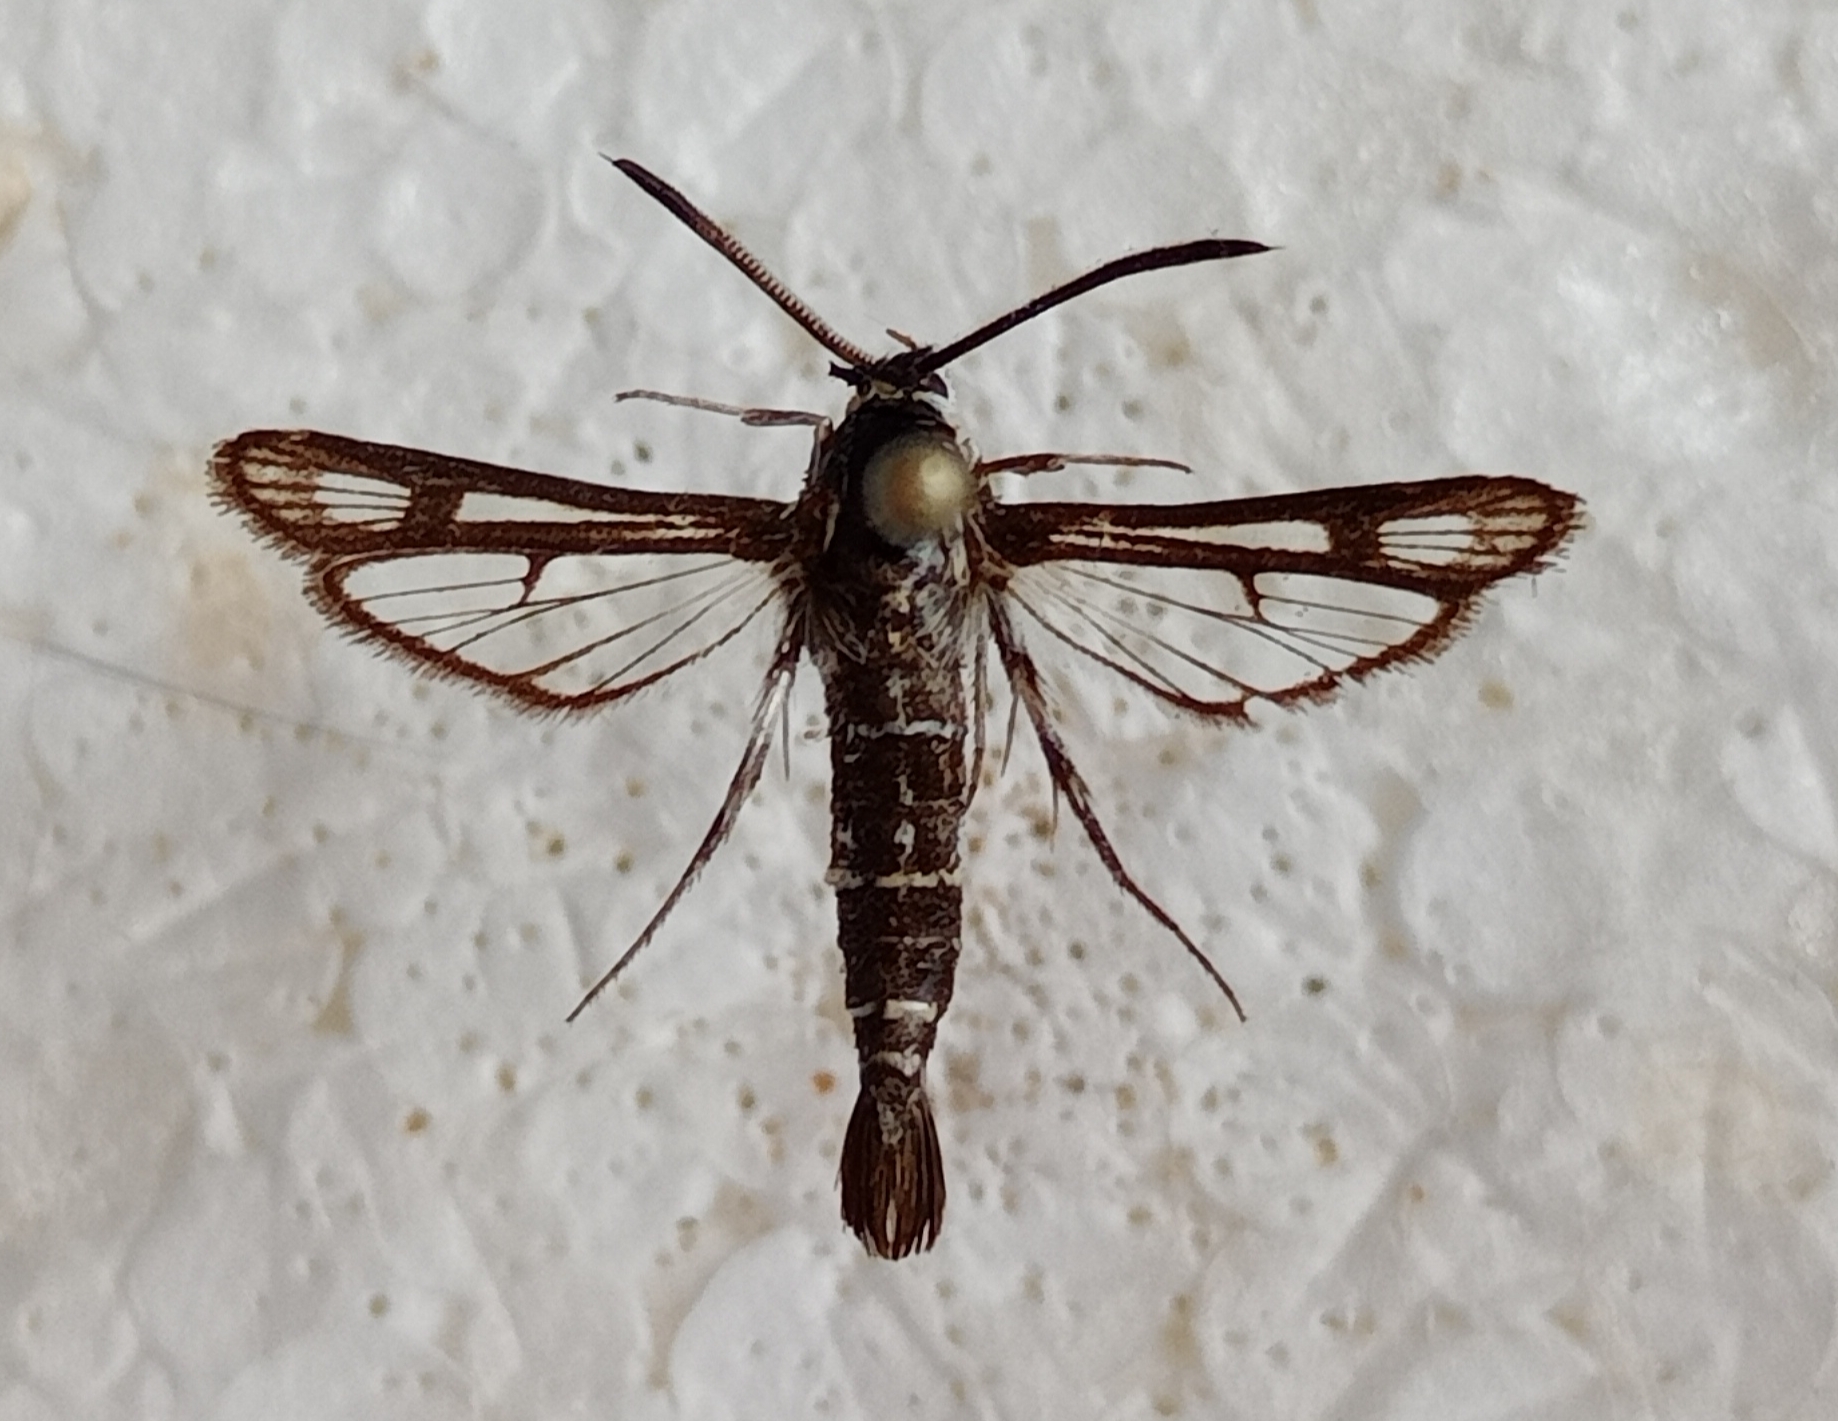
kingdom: Animalia
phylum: Arthropoda
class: Insecta
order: Lepidoptera
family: Sesiidae
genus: Chamaesphecia
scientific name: Chamaesphecia bibioniformis
